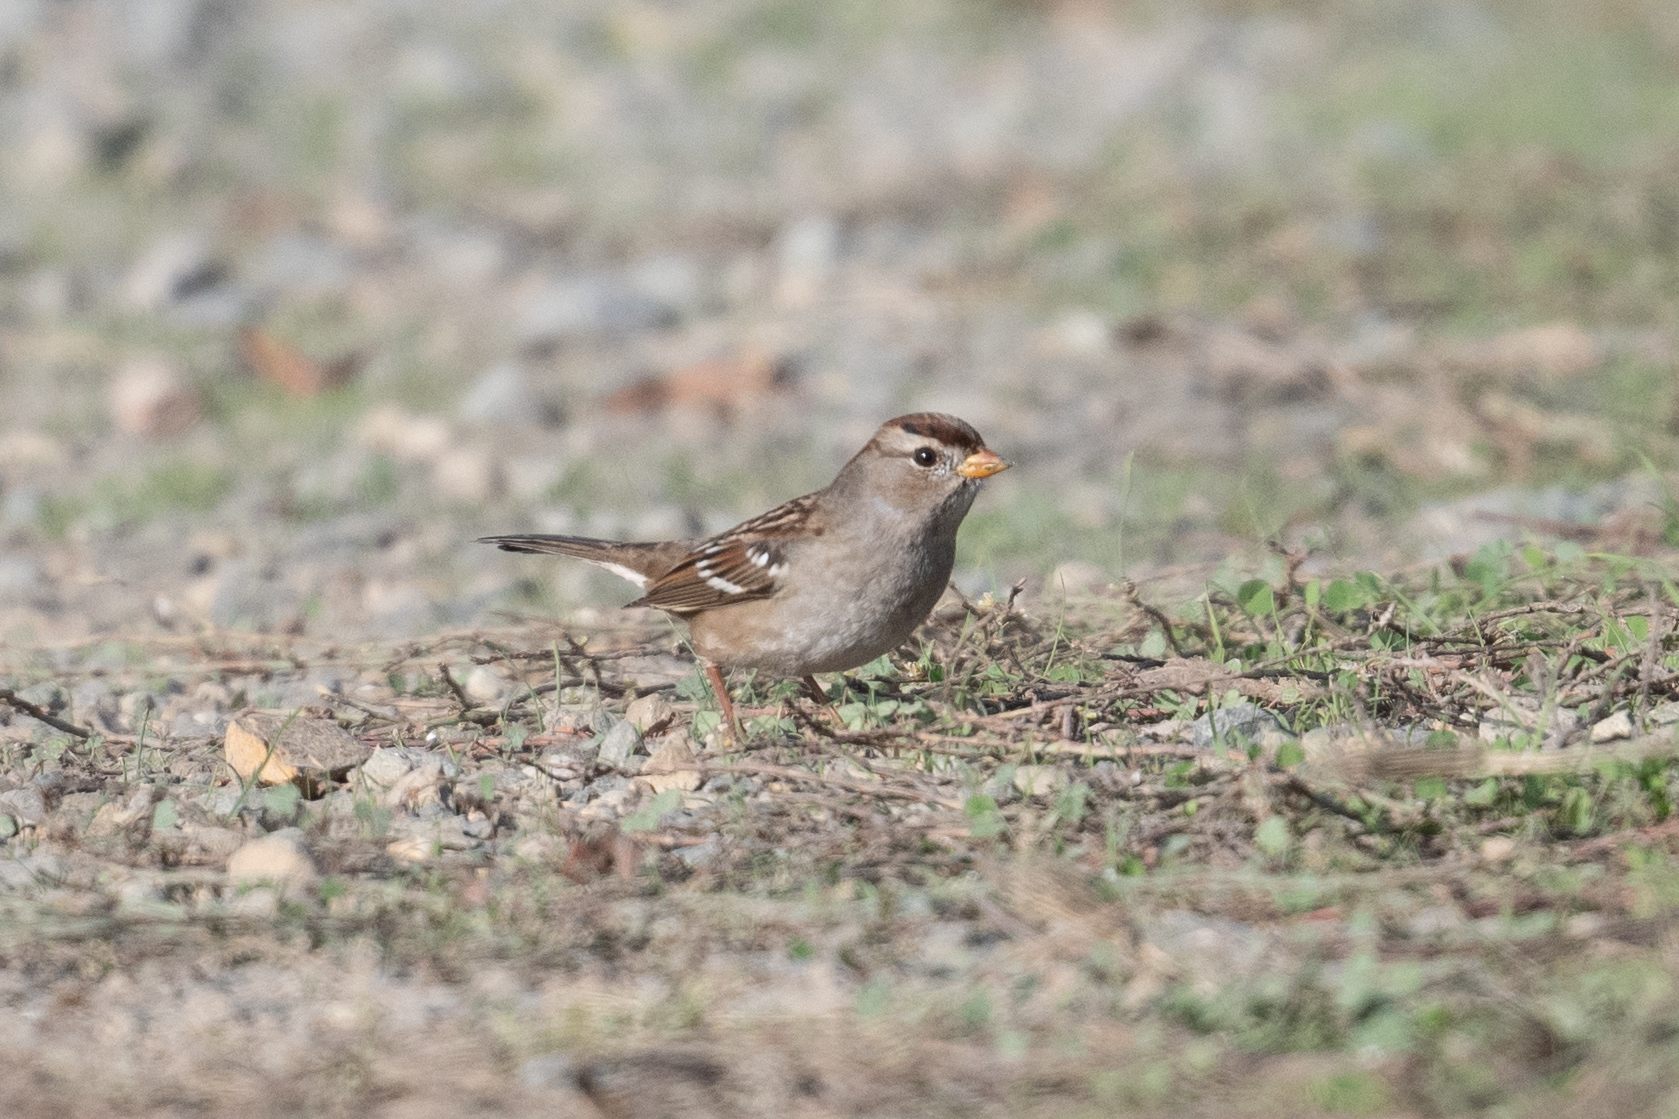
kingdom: Animalia
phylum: Chordata
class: Aves
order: Passeriformes
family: Passerellidae
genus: Zonotrichia
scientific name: Zonotrichia leucophrys
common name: White-crowned sparrow
